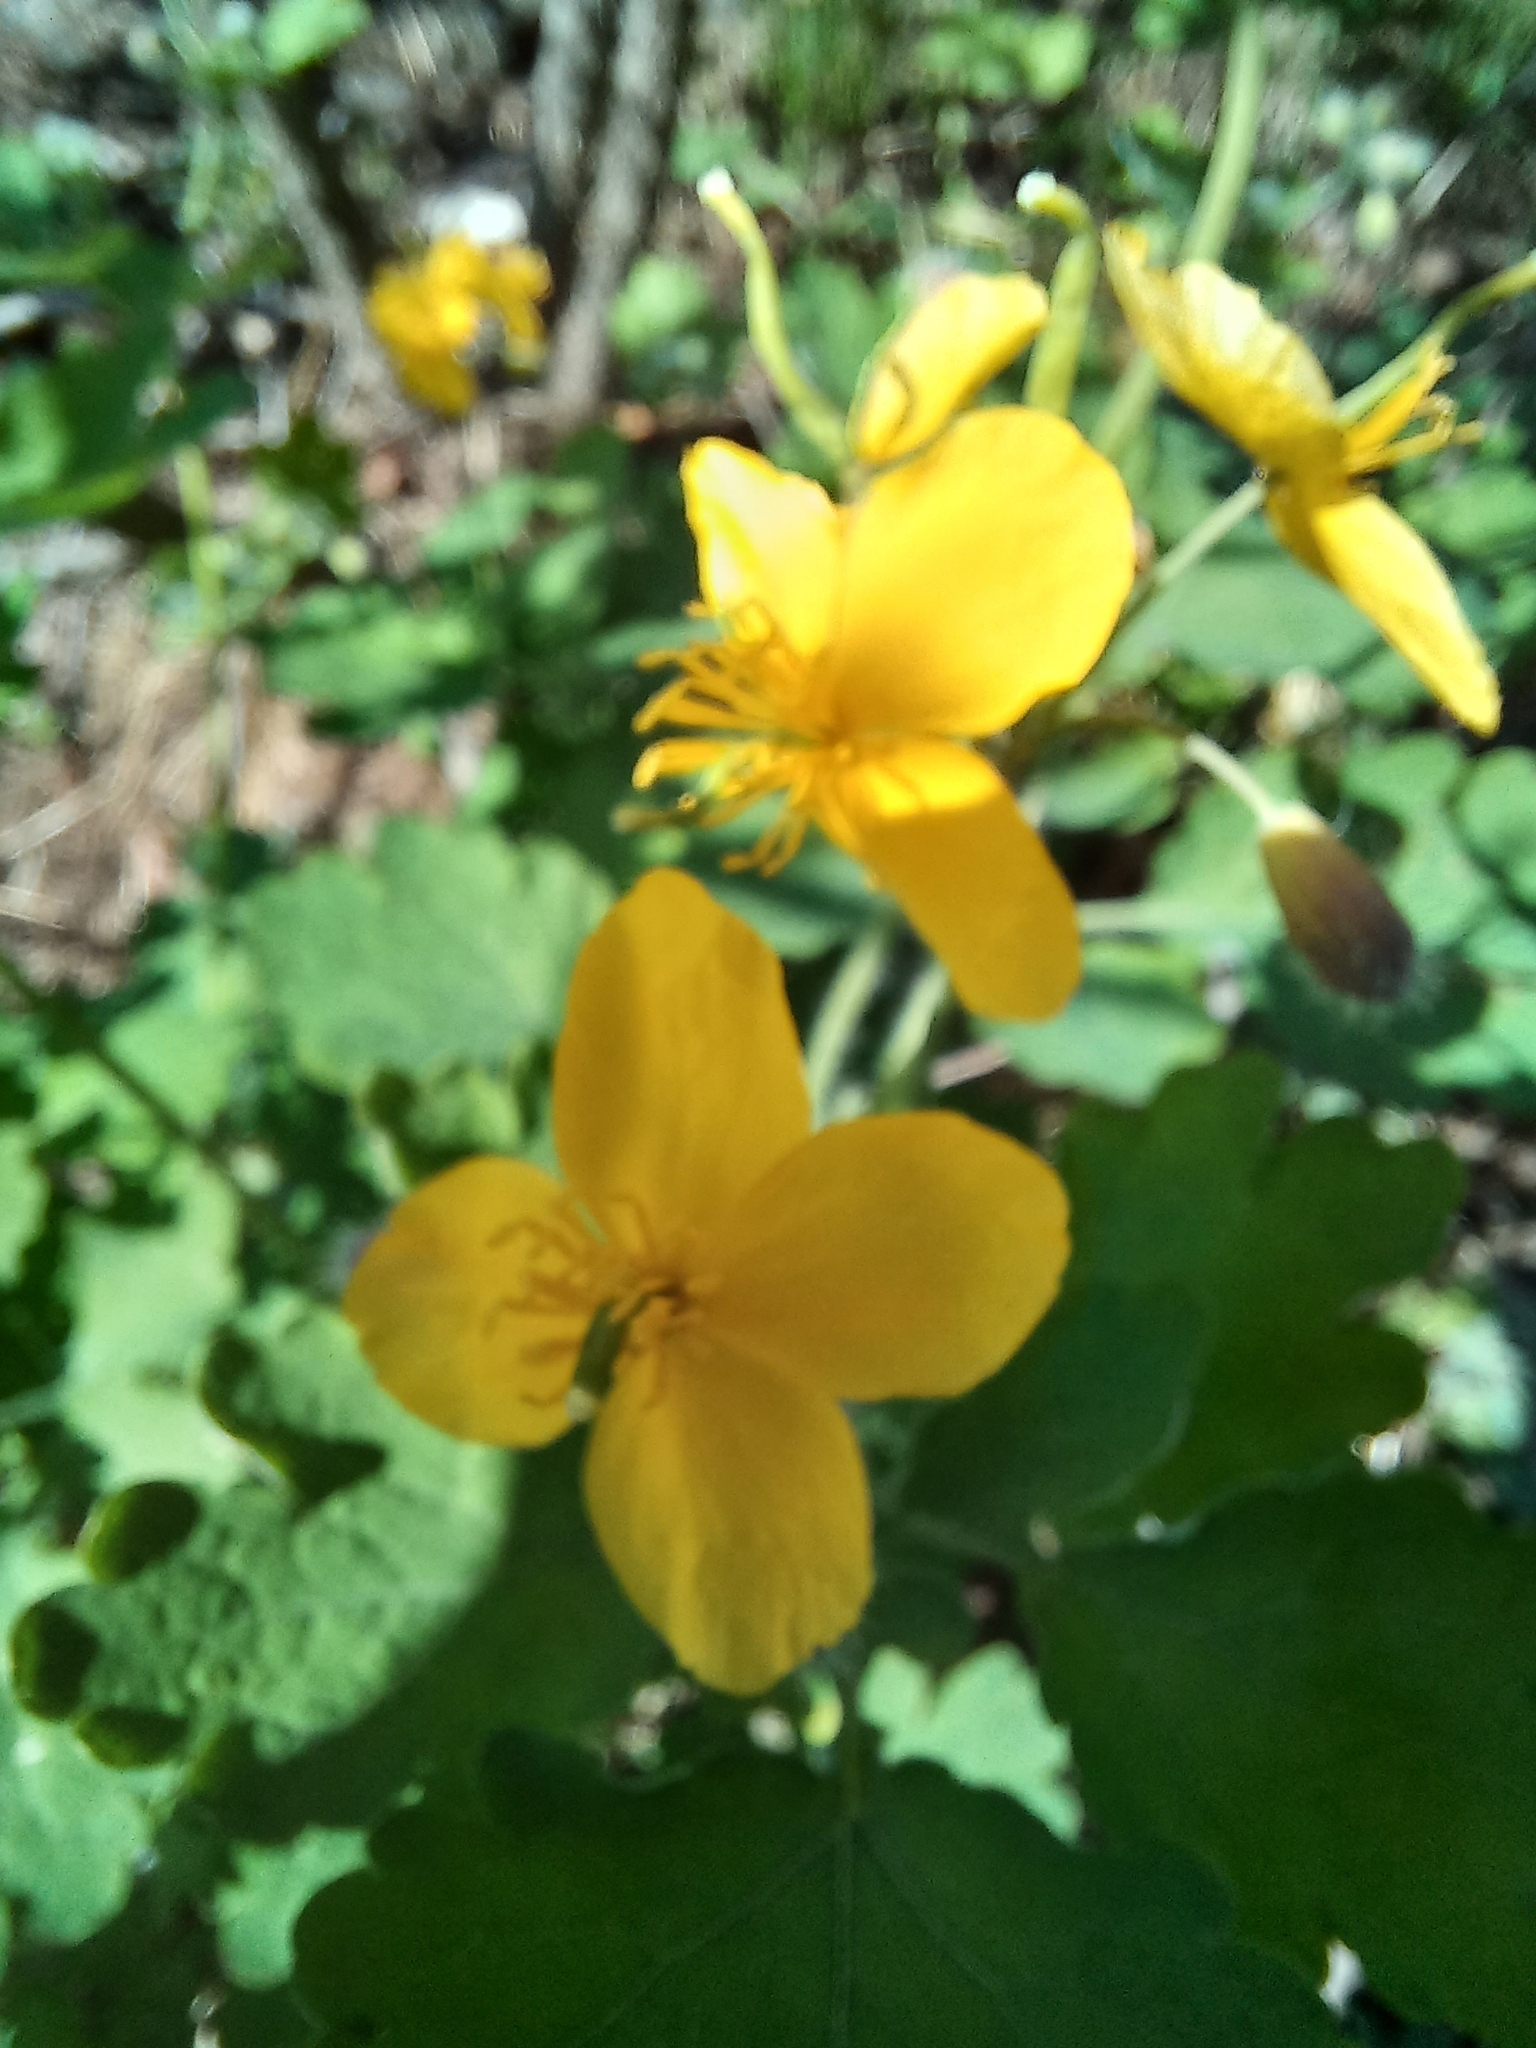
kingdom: Plantae
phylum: Tracheophyta
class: Magnoliopsida
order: Ranunculales
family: Papaveraceae
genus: Chelidonium
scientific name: Chelidonium majus
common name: Greater celandine
